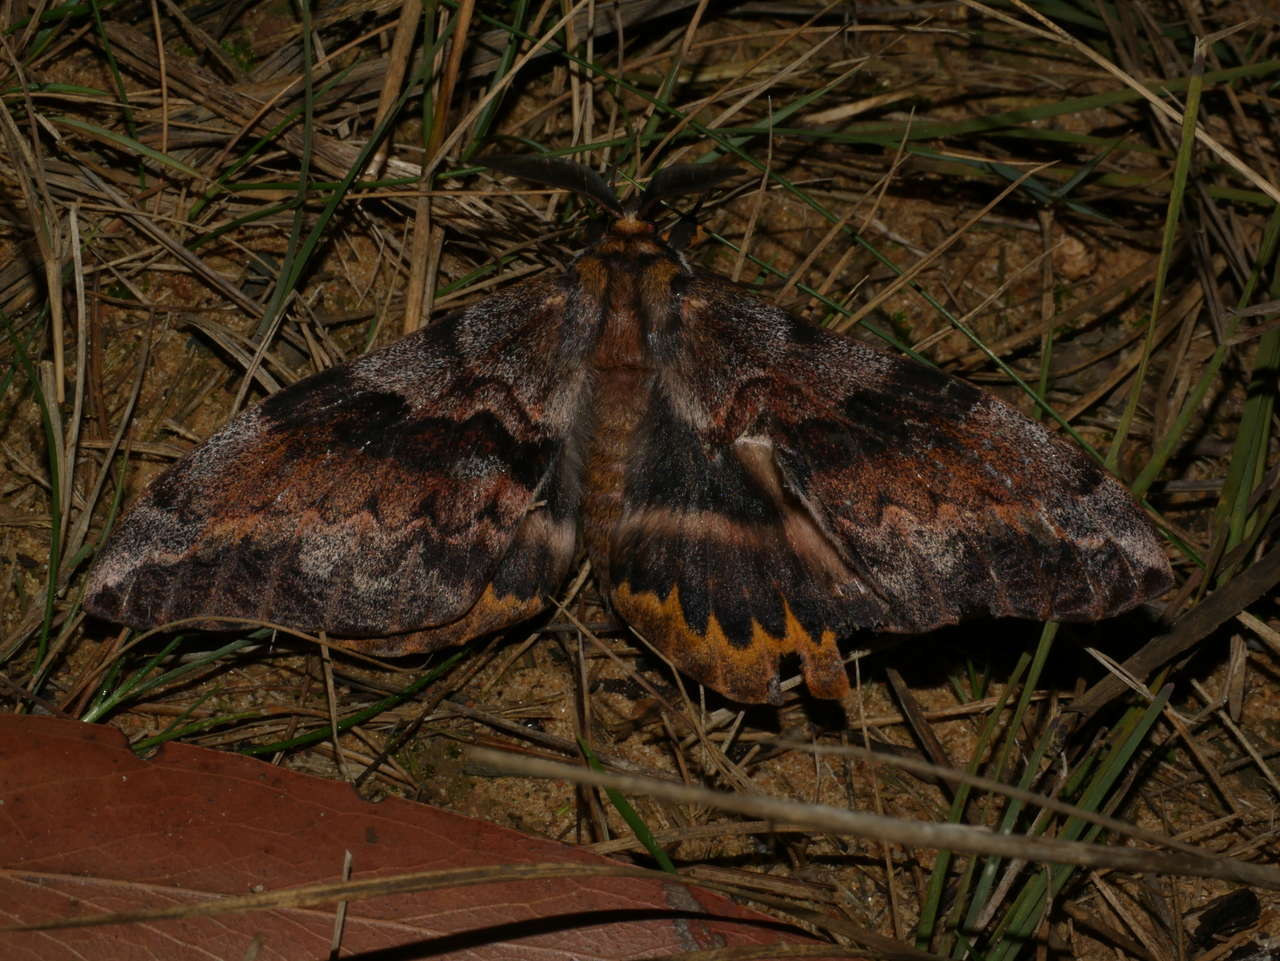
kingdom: Animalia
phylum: Arthropoda
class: Insecta
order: Lepidoptera
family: Anthelidae
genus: Chelepteryx
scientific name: Chelepteryx collesi
